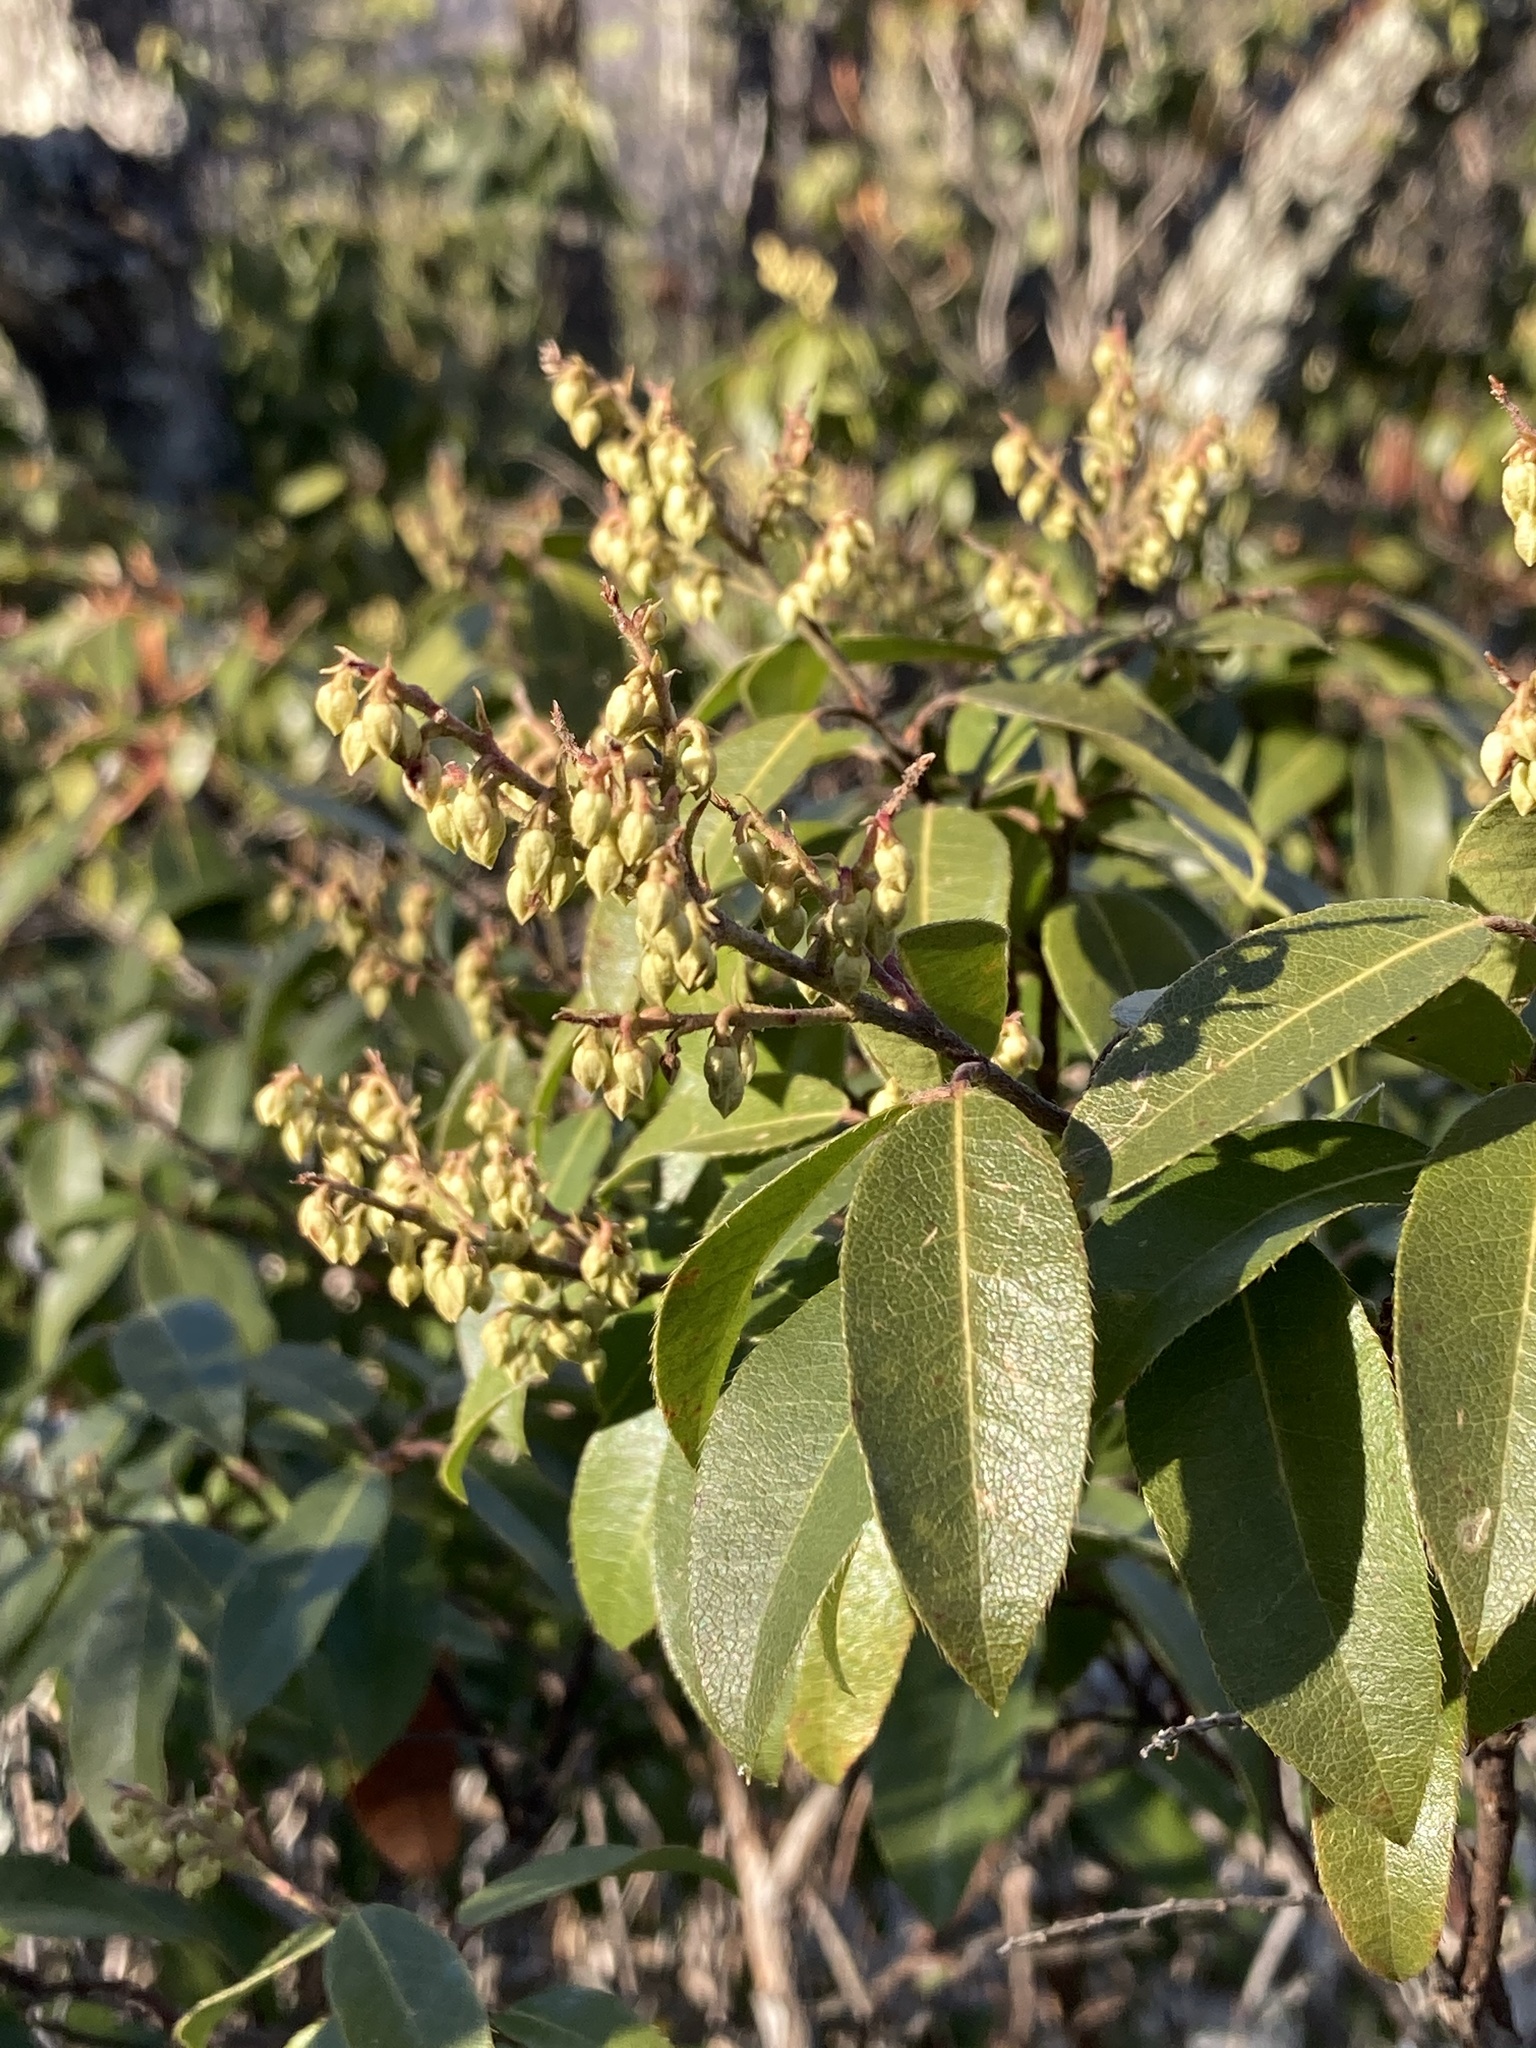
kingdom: Plantae
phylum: Tracheophyta
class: Magnoliopsida
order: Ericales
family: Ericaceae
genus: Pieris
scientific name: Pieris floribunda
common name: Flutterbush
